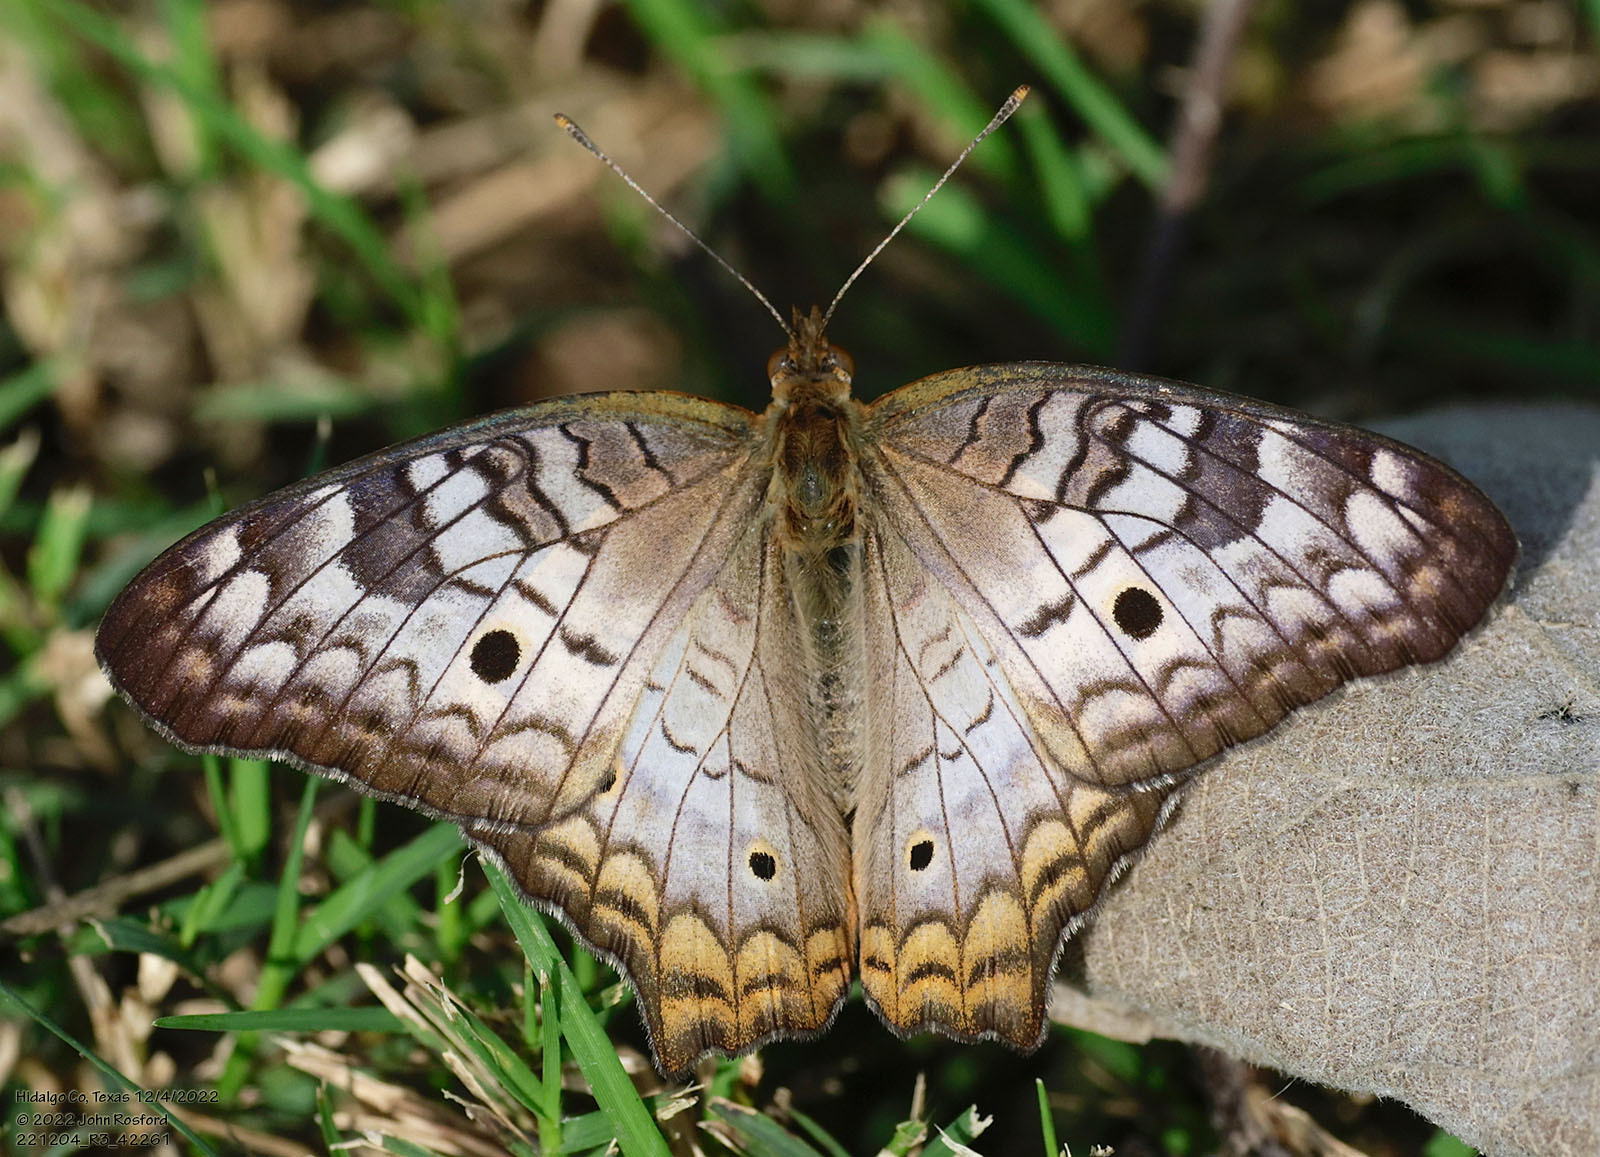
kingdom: Animalia
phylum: Arthropoda
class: Insecta
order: Lepidoptera
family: Nymphalidae
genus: Anartia
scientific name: Anartia jatrophae
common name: White peacock
